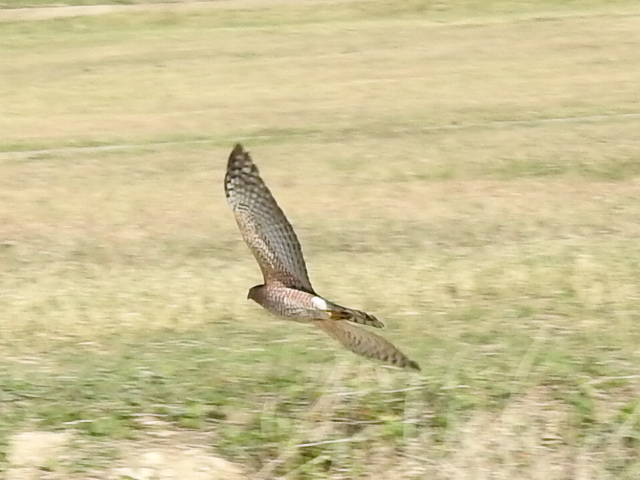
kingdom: Animalia
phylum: Chordata
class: Aves
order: Accipitriformes
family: Accipitridae
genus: Accipiter
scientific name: Accipiter cooperii
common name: Cooper's hawk
